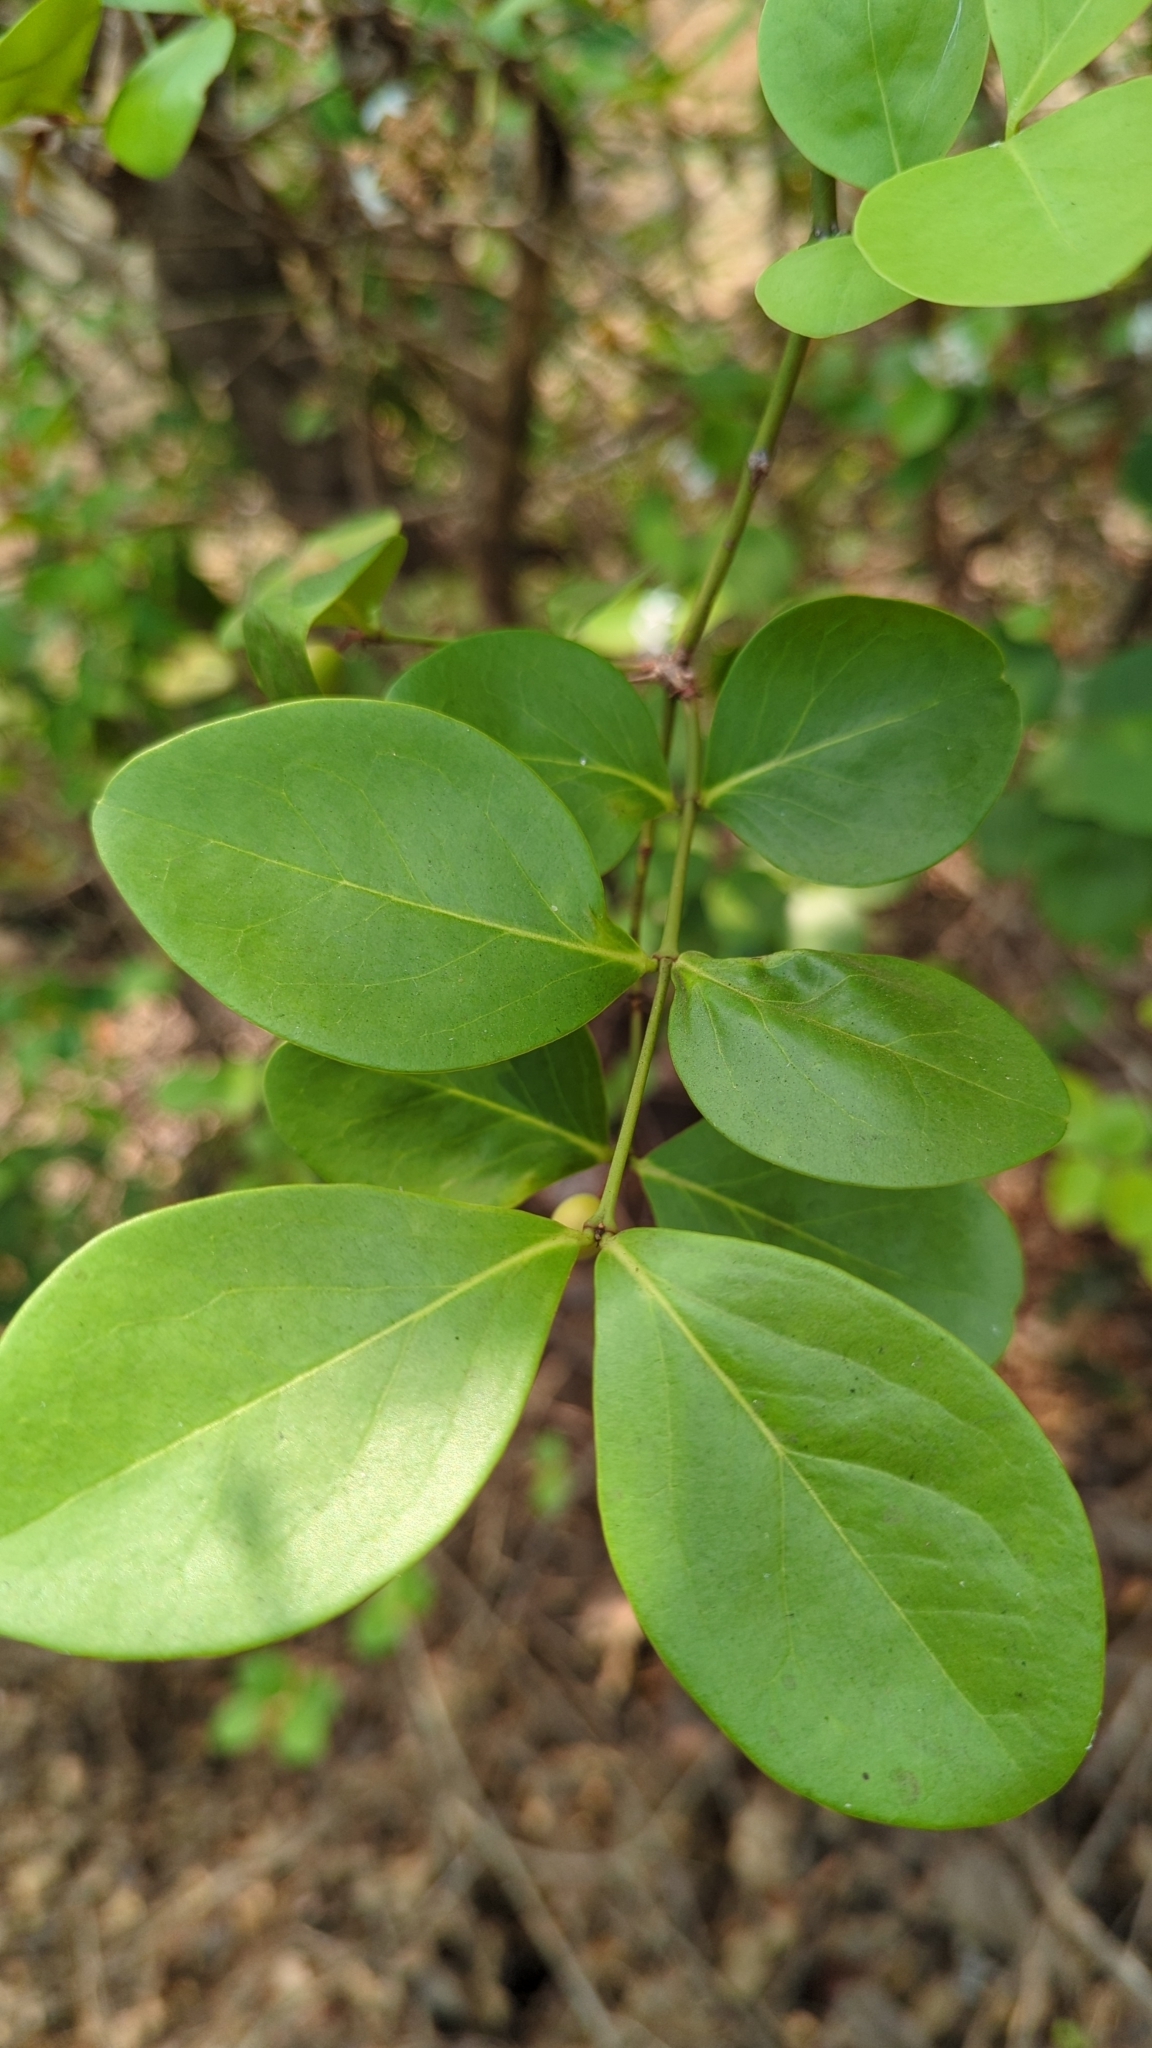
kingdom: Plantae
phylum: Tracheophyta
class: Magnoliopsida
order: Gentianales
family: Apocynaceae
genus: Carissa
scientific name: Carissa carandas
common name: Karanda
